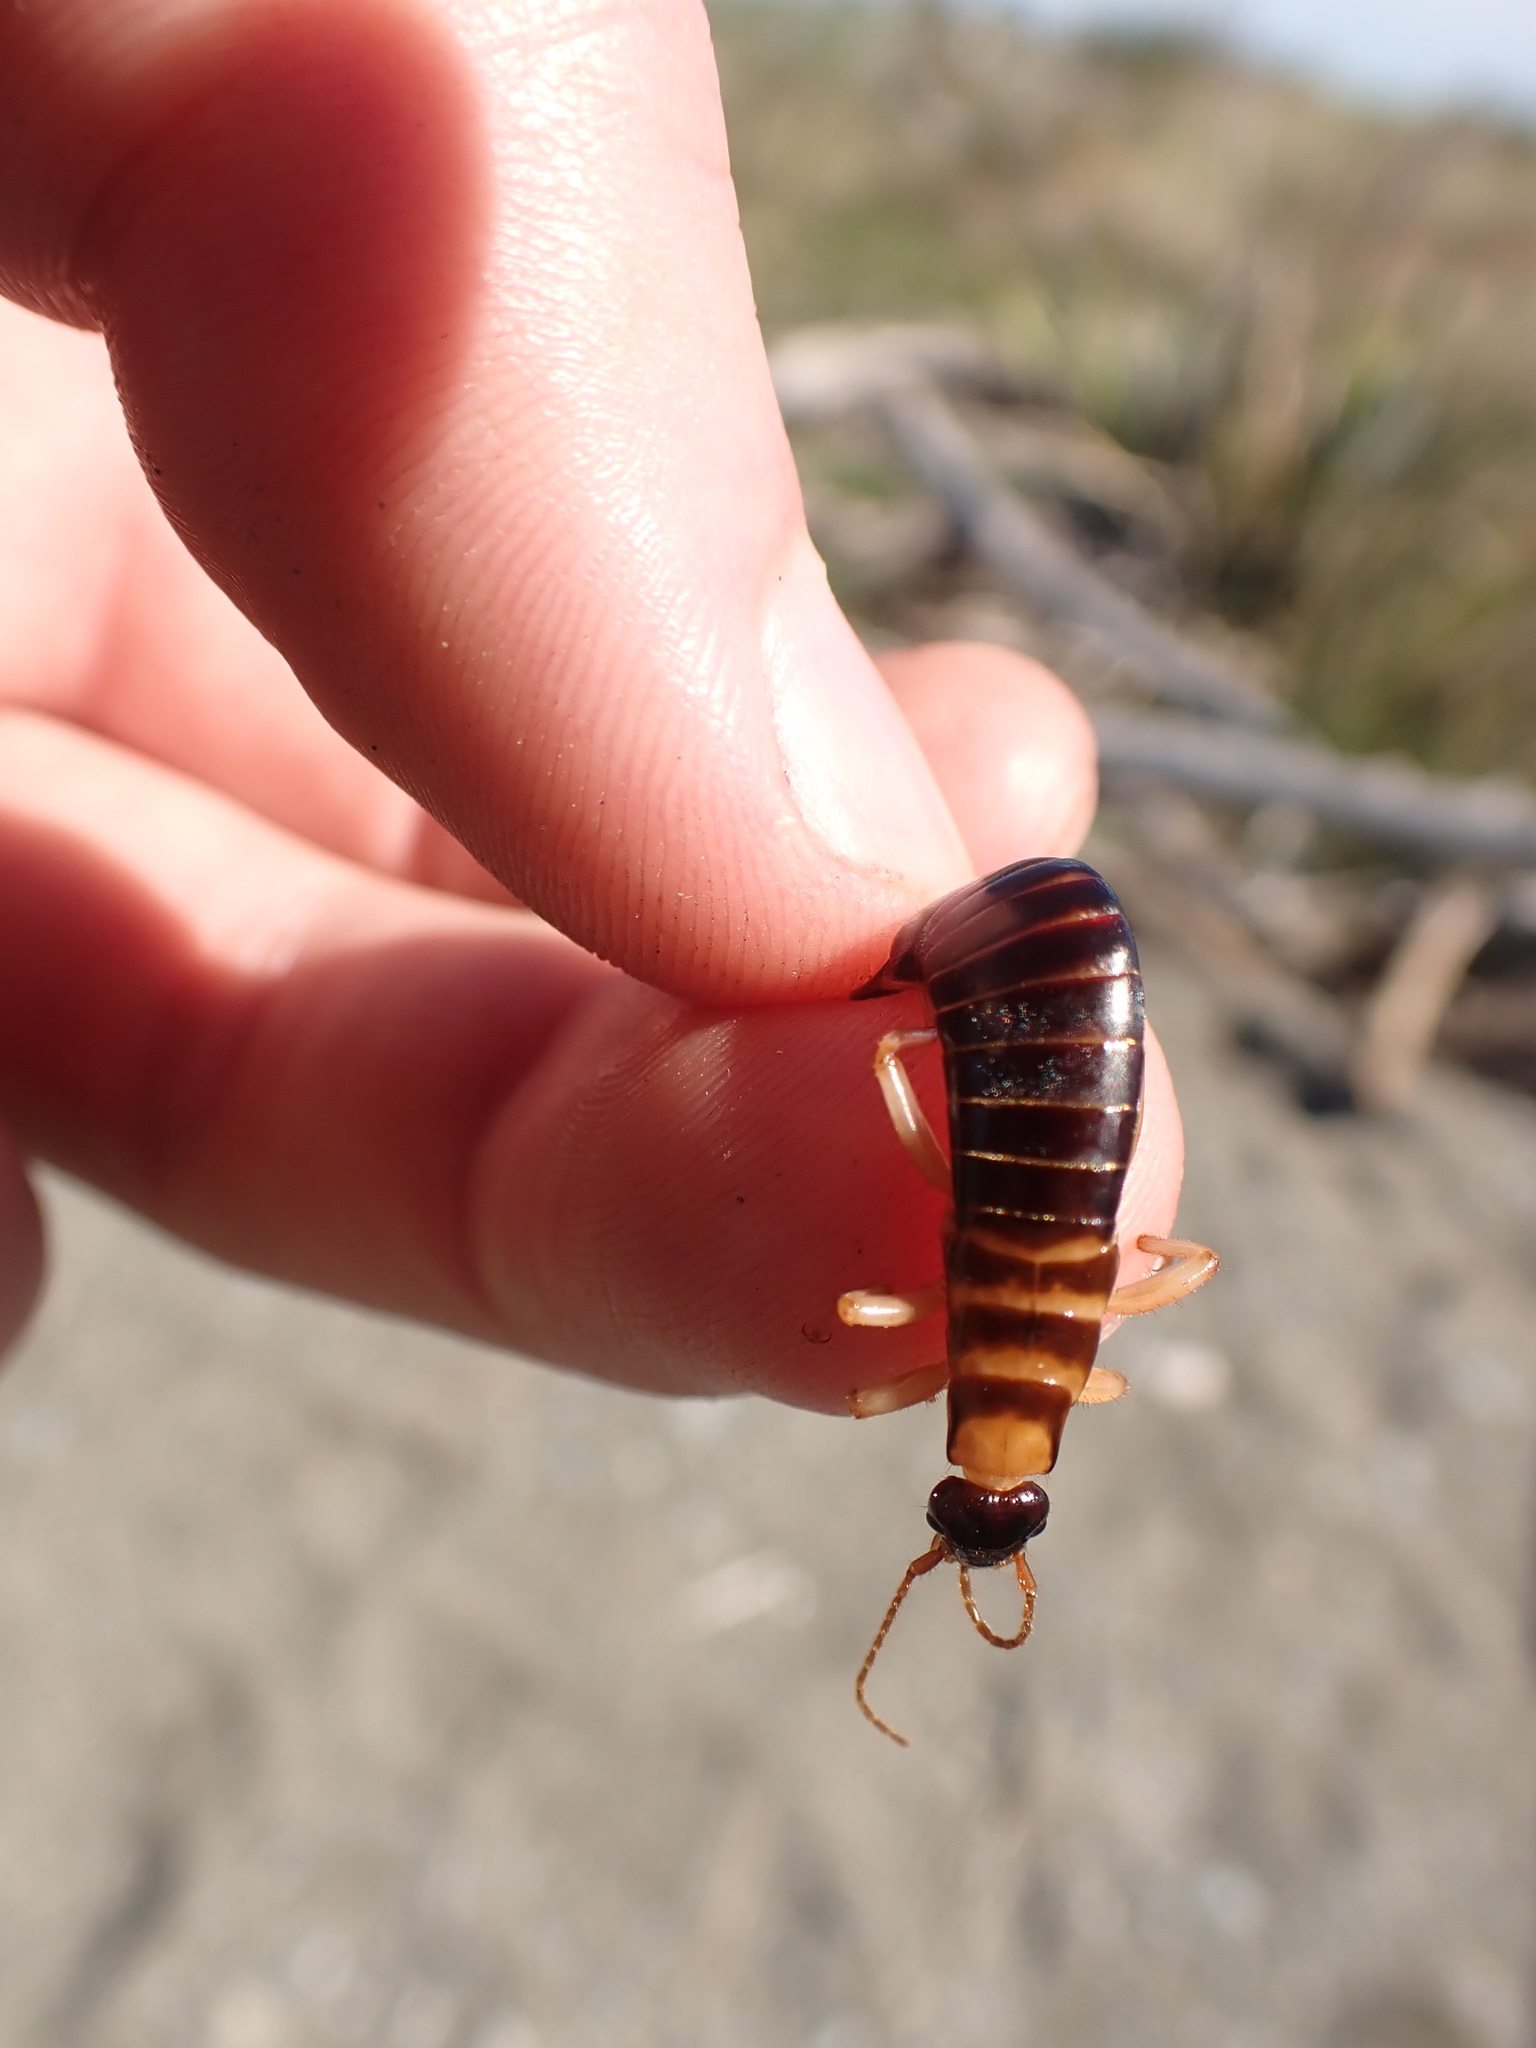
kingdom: Animalia
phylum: Arthropoda
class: Insecta
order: Dermaptera
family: Anisolabididae
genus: Anisolabis
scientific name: Anisolabis littorea
